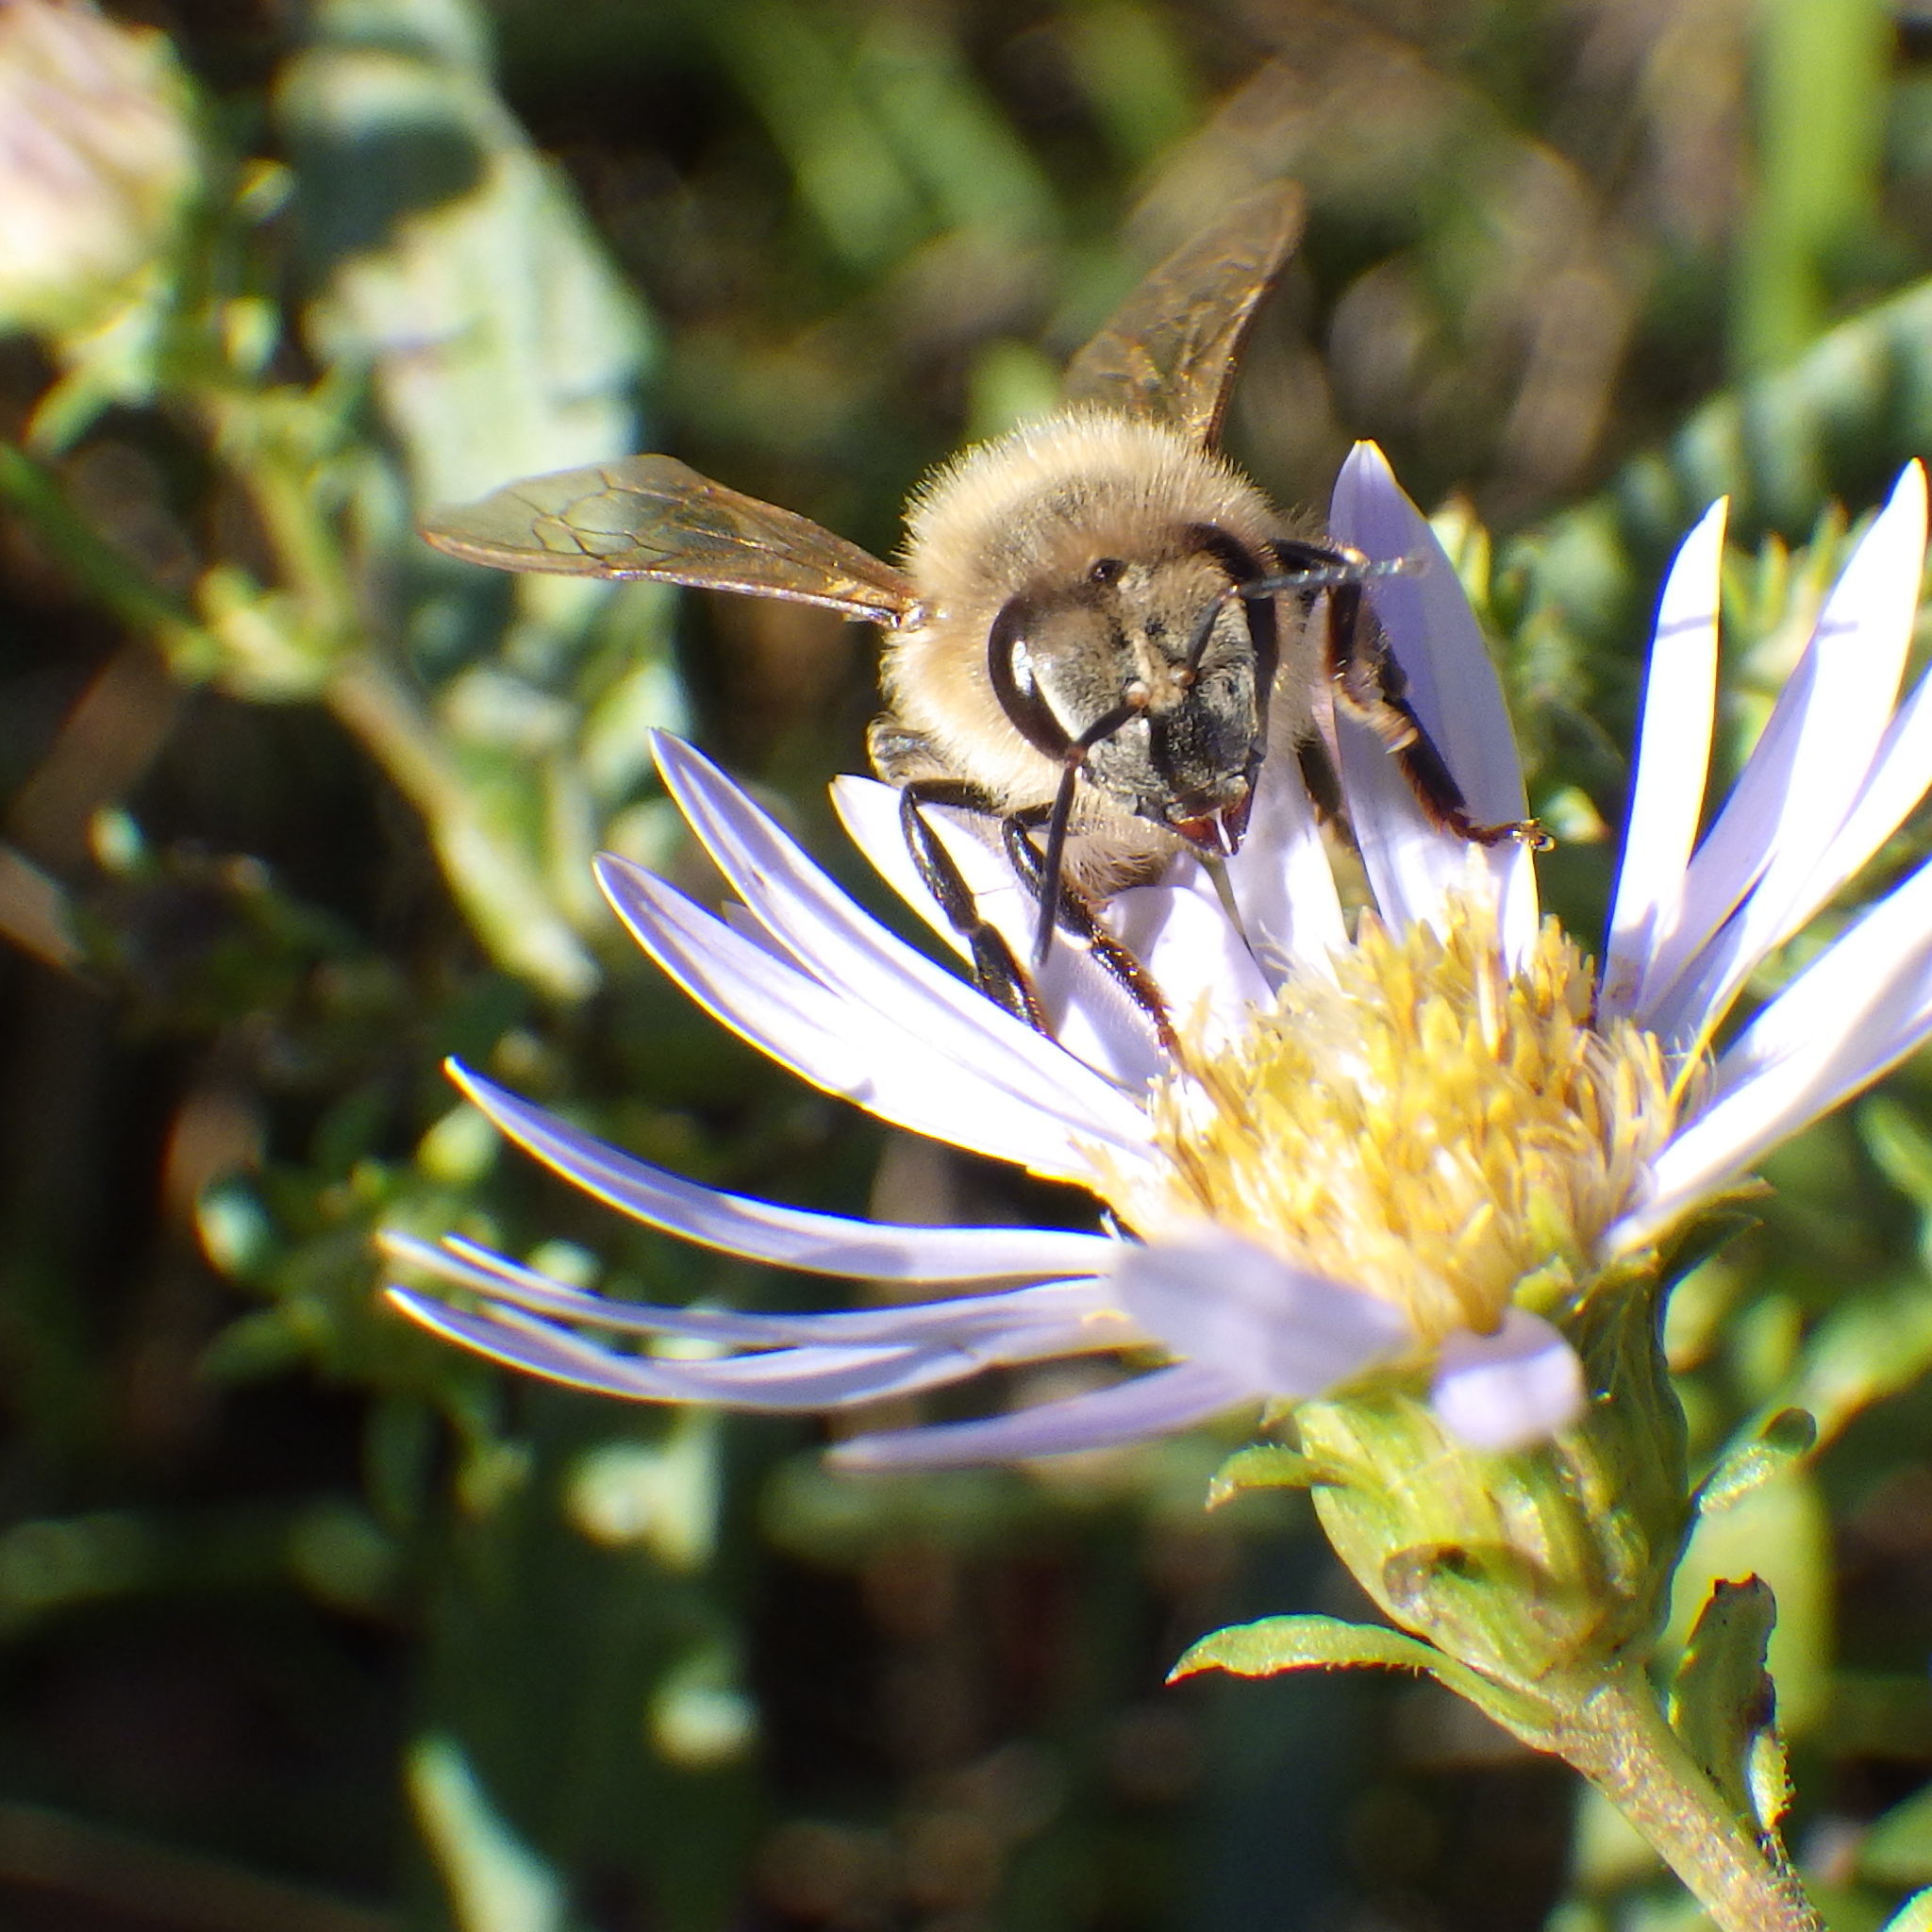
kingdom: Animalia
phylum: Arthropoda
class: Insecta
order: Hymenoptera
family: Apidae
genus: Apis
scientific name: Apis mellifera
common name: Honey bee
